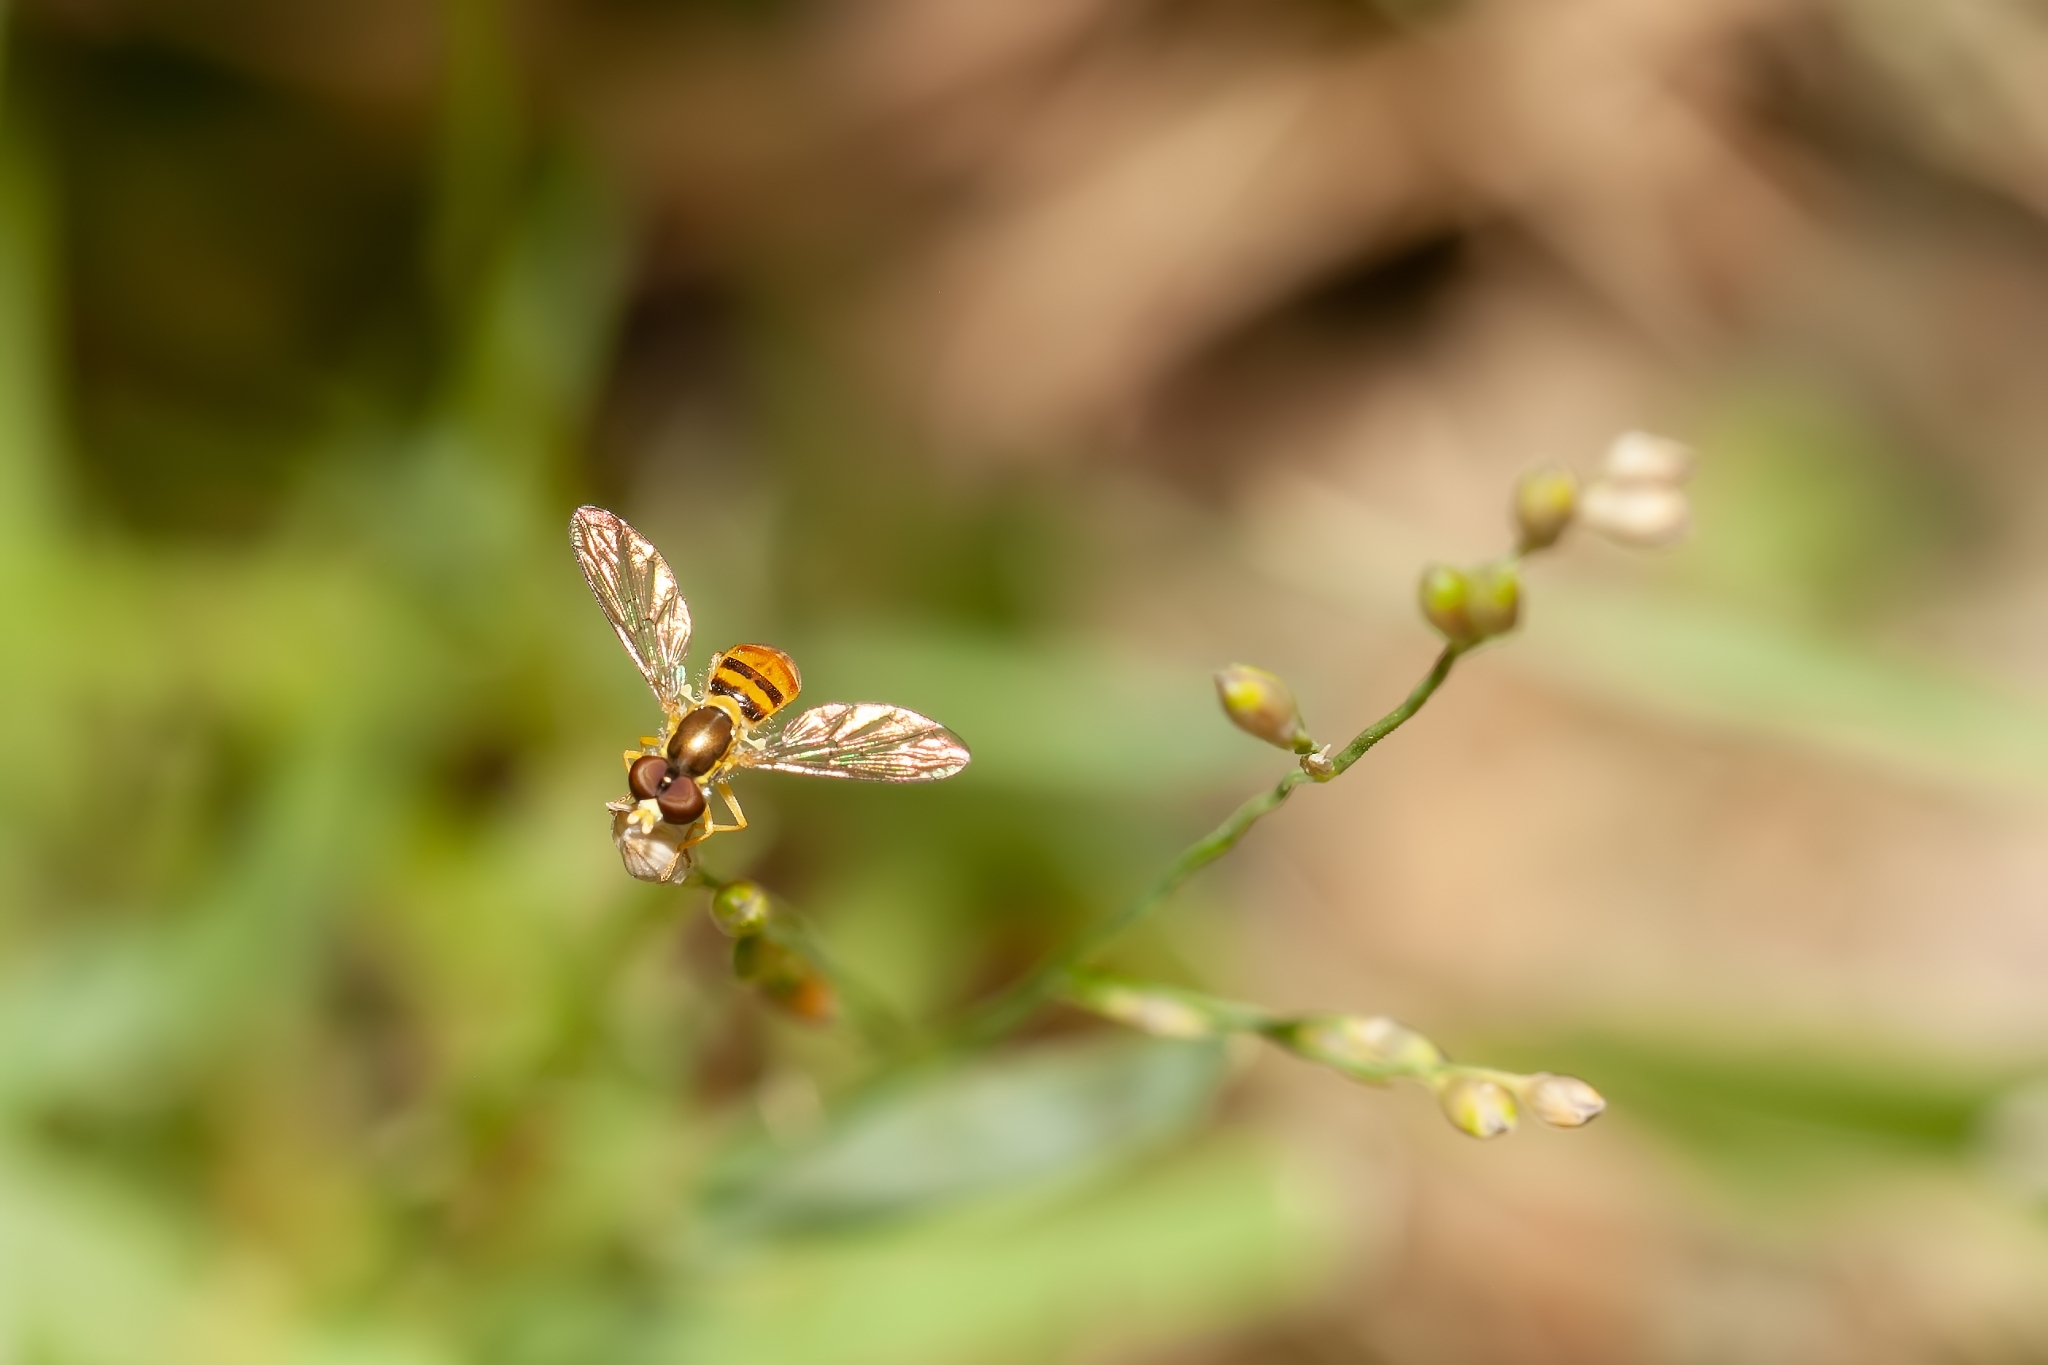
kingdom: Animalia
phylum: Arthropoda
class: Insecta
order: Diptera
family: Syrphidae
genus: Toxomerus
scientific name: Toxomerus marginatus
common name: Syrphid fly
